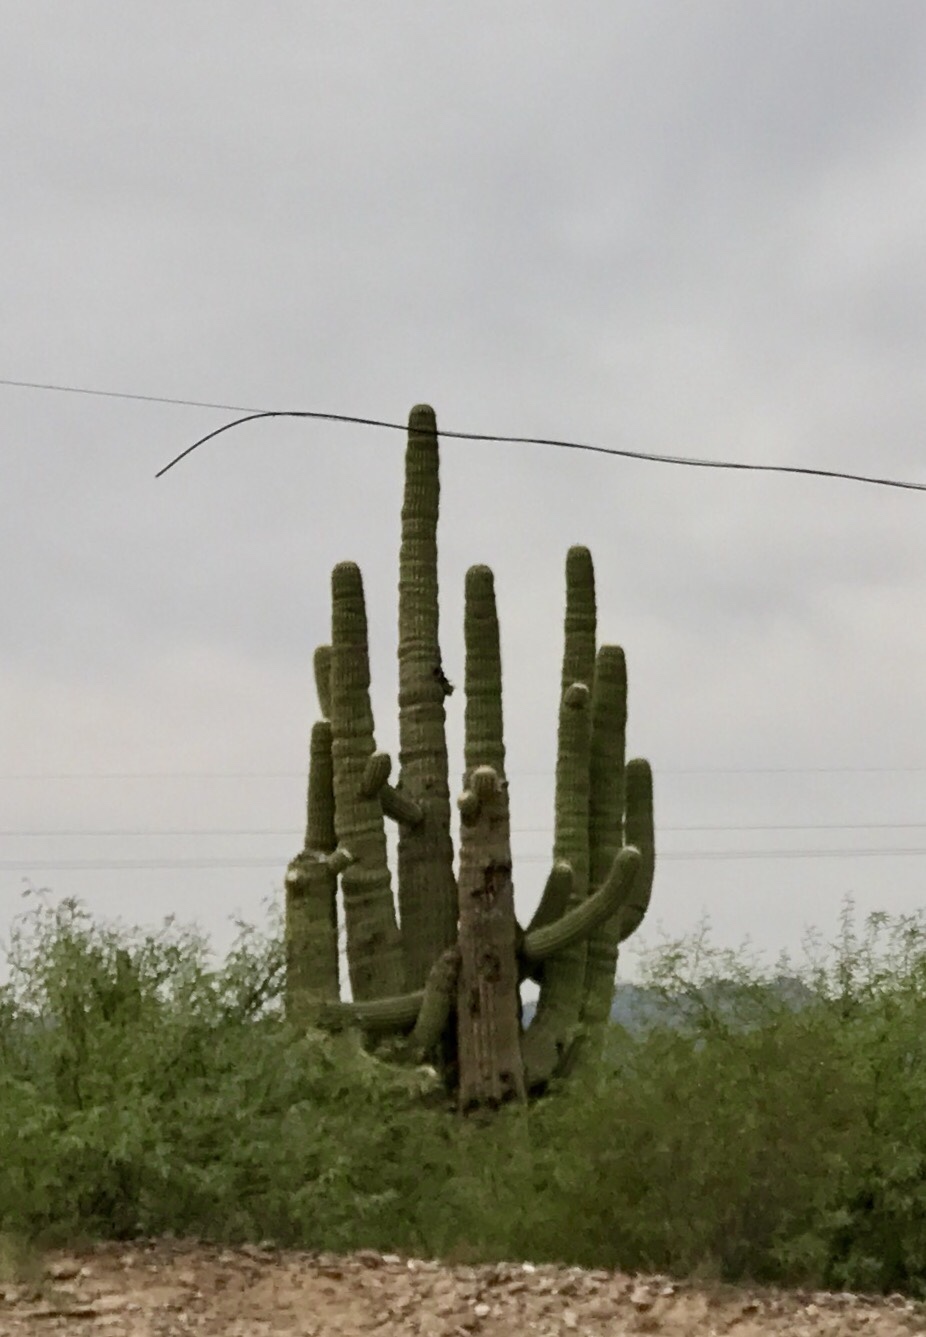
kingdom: Plantae
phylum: Tracheophyta
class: Magnoliopsida
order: Caryophyllales
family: Cactaceae
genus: Carnegiea
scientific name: Carnegiea gigantea
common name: Saguaro
